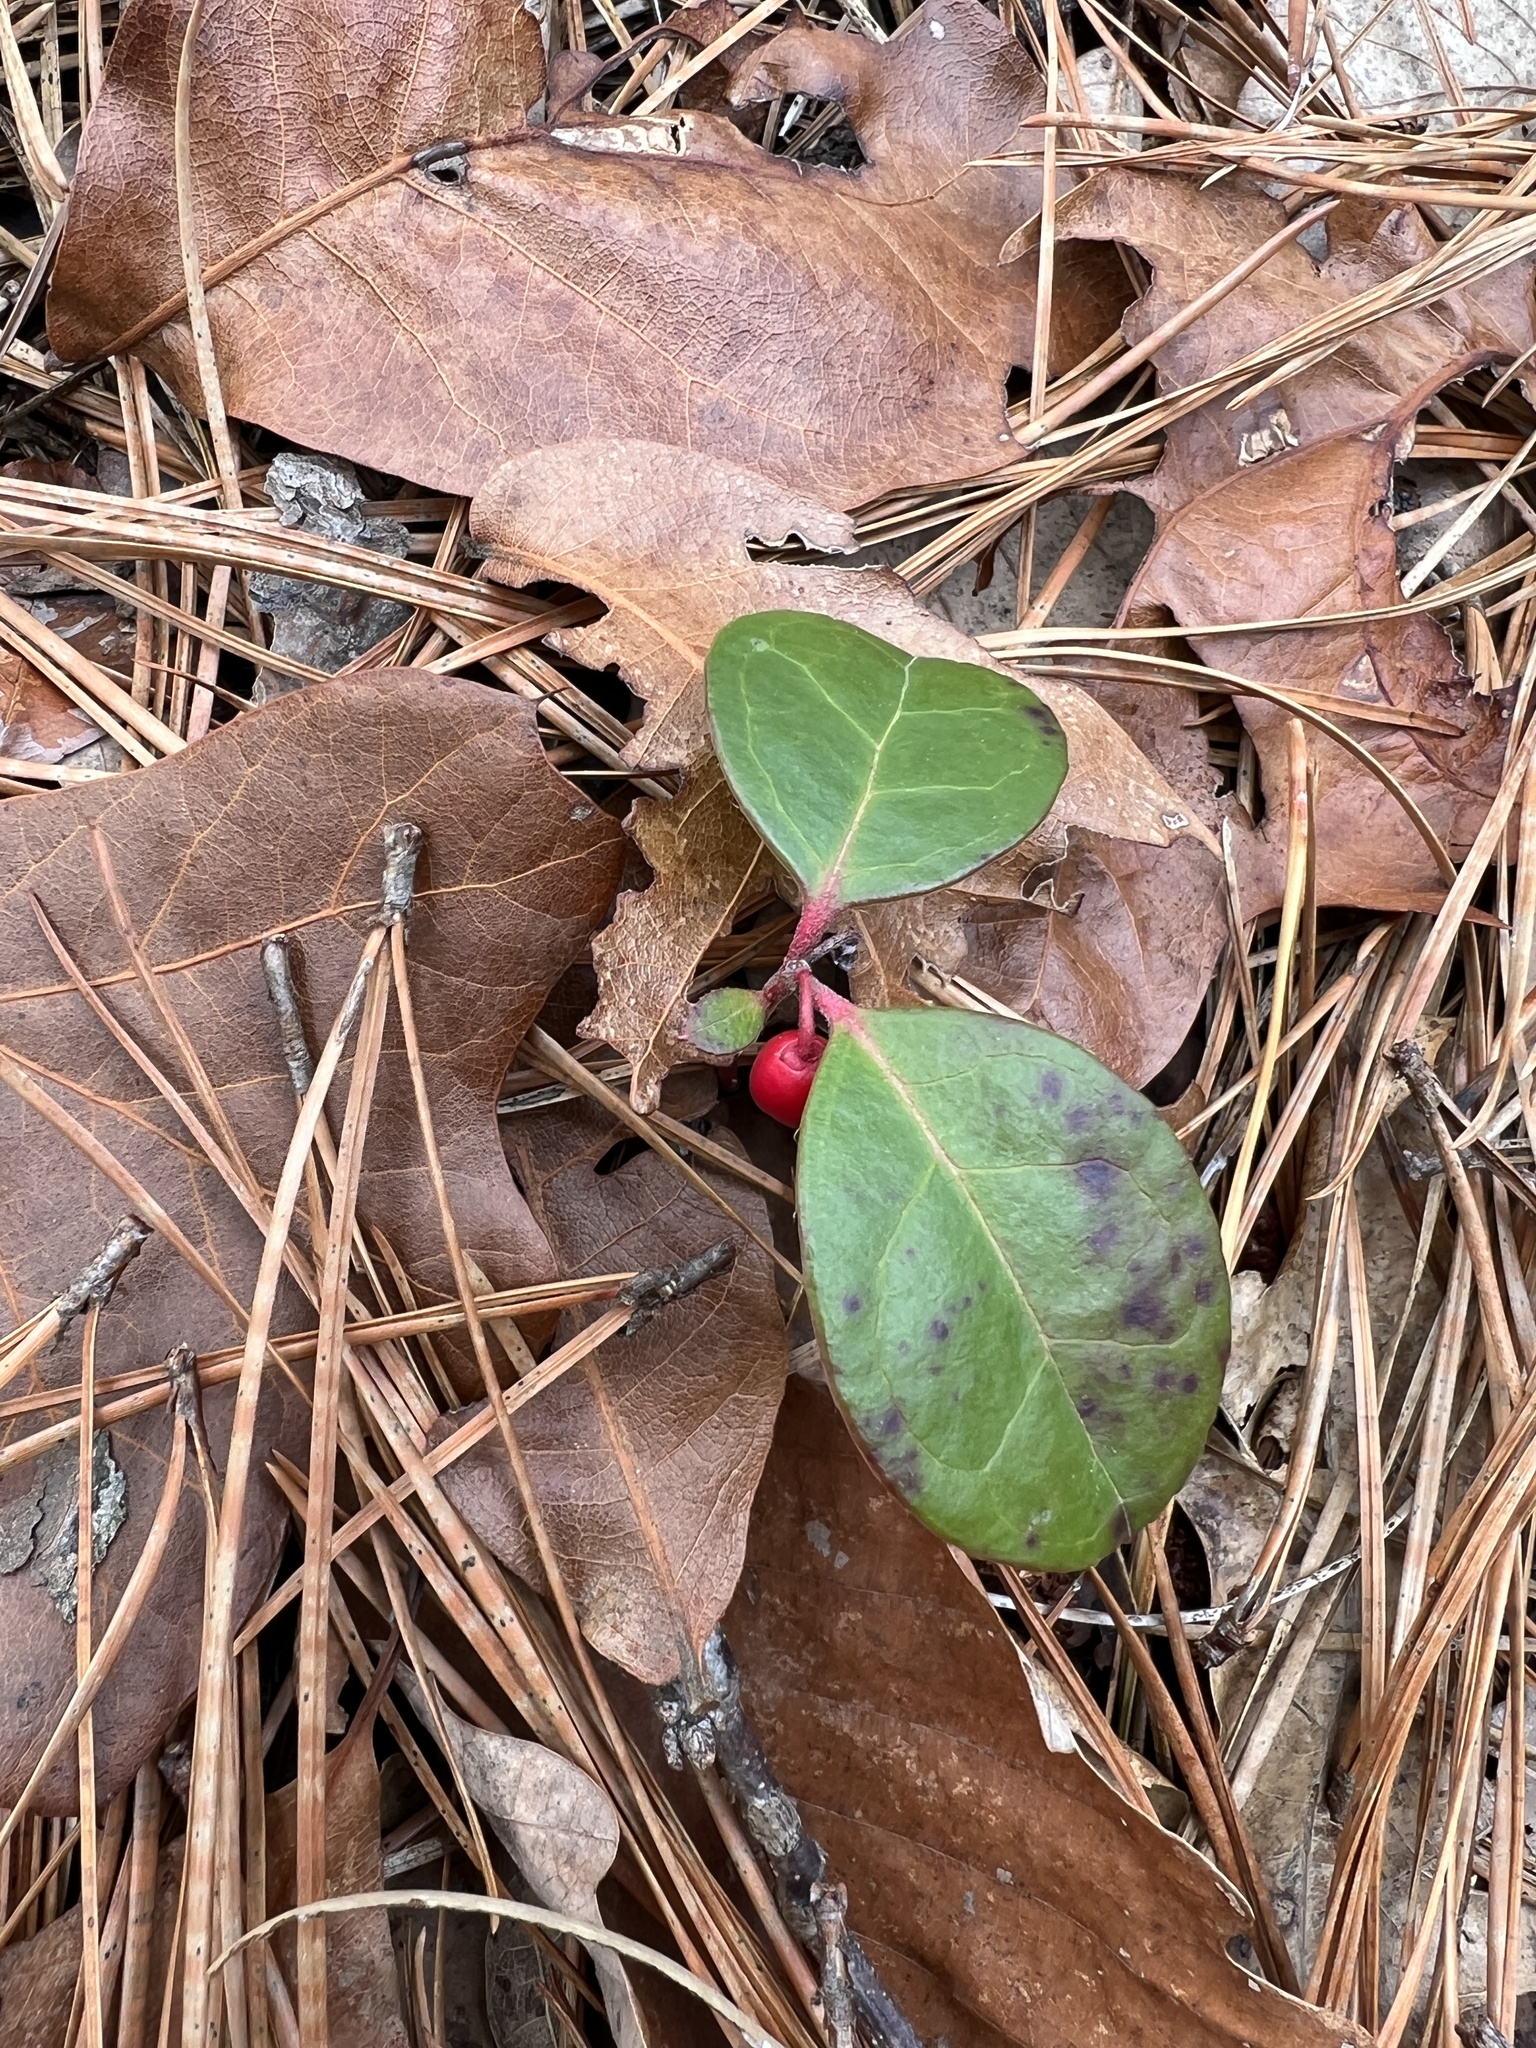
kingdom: Plantae
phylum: Tracheophyta
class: Magnoliopsida
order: Ericales
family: Ericaceae
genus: Gaultheria
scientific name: Gaultheria procumbens
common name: Checkerberry
